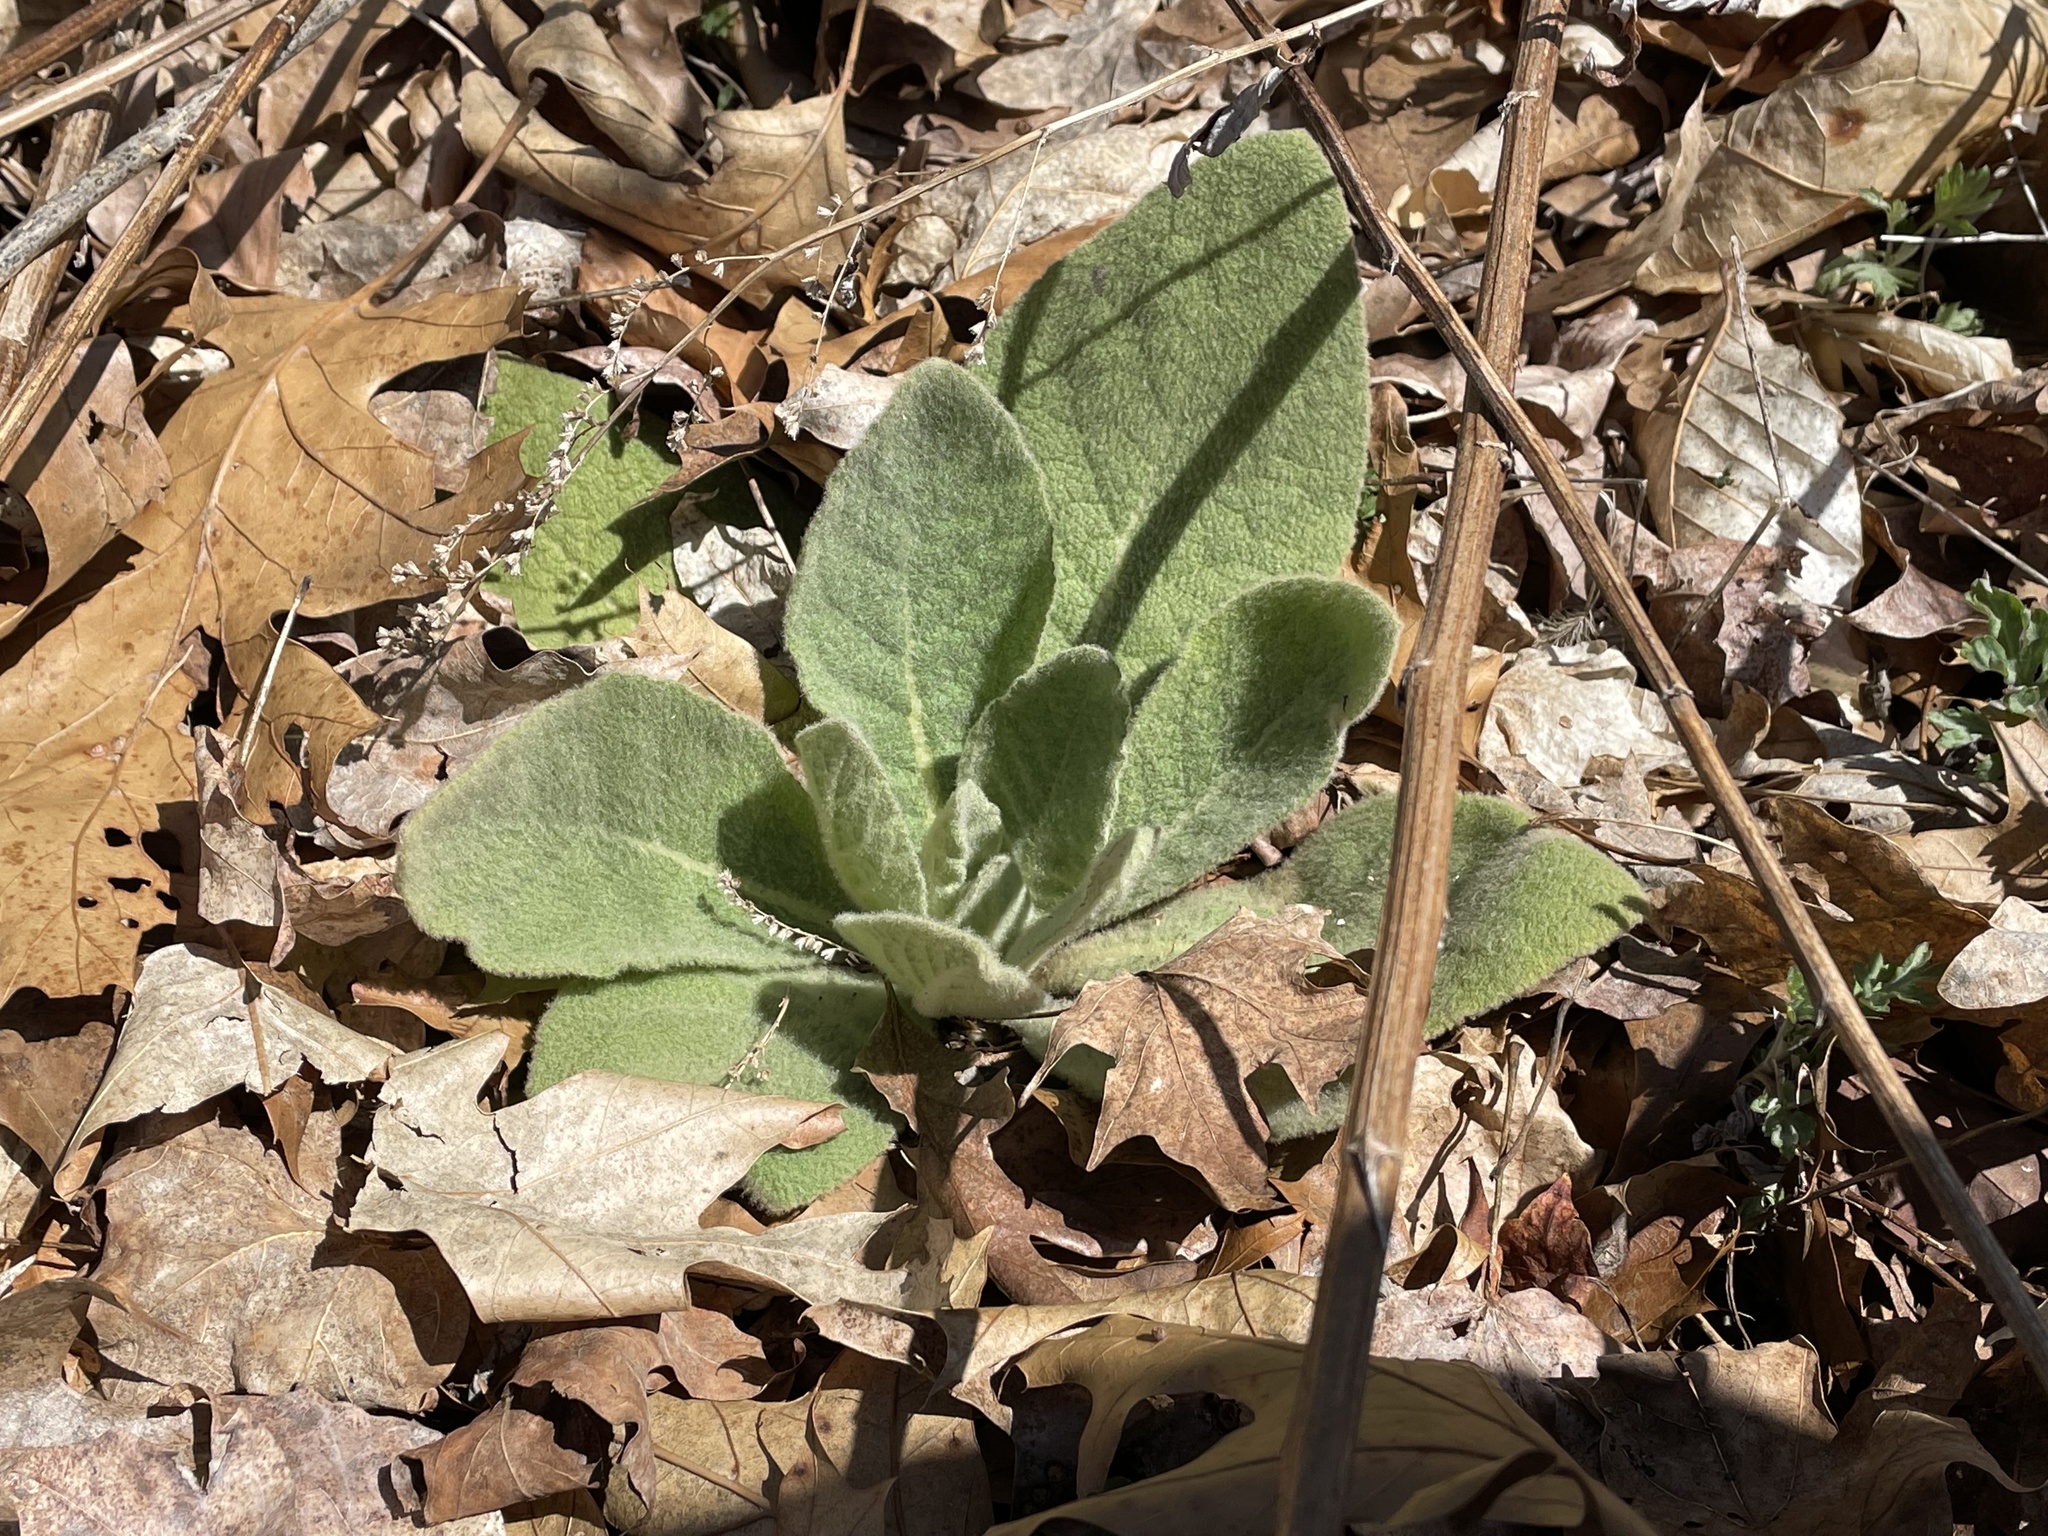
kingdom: Plantae
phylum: Tracheophyta
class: Magnoliopsida
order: Lamiales
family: Scrophulariaceae
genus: Verbascum
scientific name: Verbascum thapsus
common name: Common mullein
